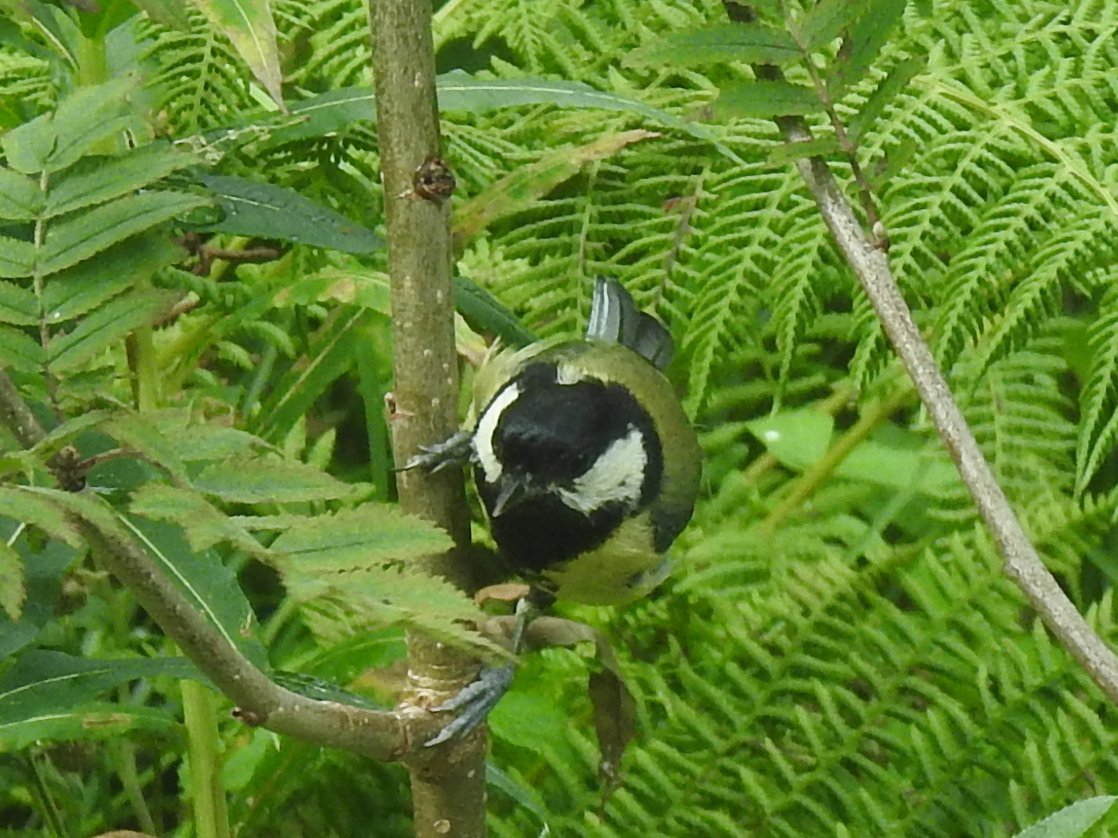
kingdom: Animalia
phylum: Chordata
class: Aves
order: Passeriformes
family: Paridae
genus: Parus
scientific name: Parus major
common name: Great tit
